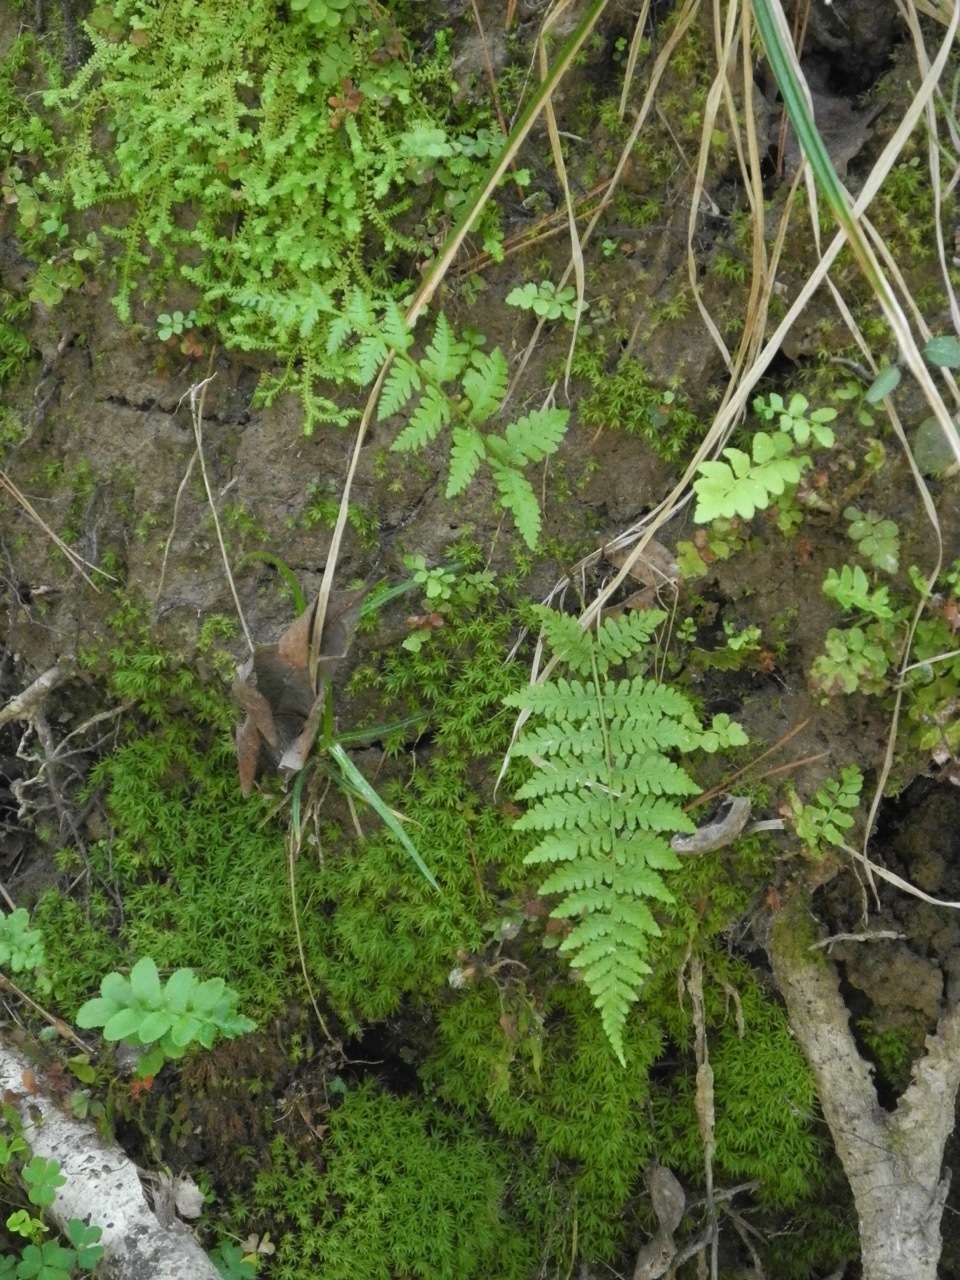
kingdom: Plantae
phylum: Tracheophyta
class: Polypodiopsida
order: Polypodiales
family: Athyriaceae
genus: Athyrium
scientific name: Athyrium asplenioides
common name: Southern lady fern
